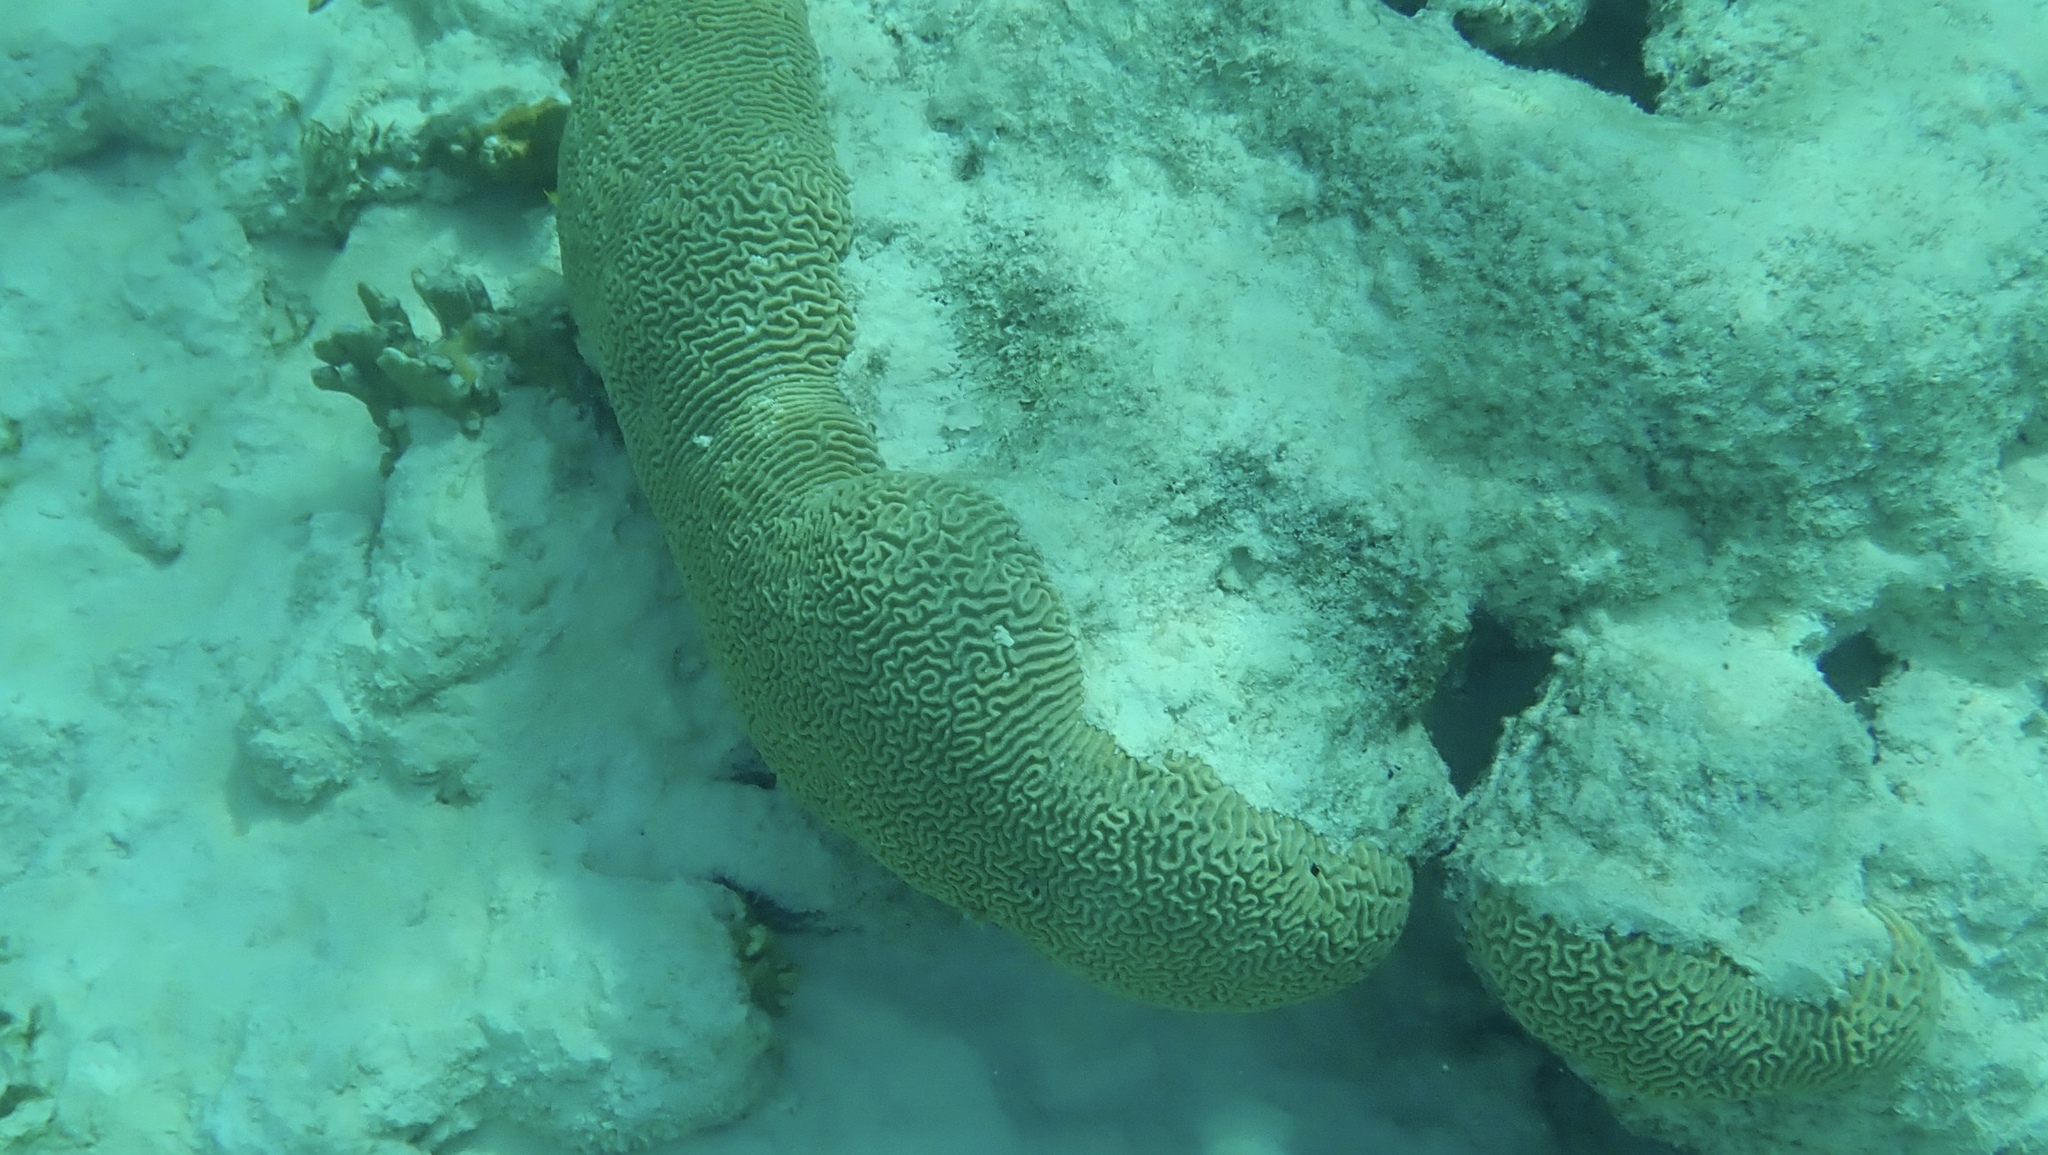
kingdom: Animalia
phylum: Cnidaria
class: Anthozoa
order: Scleractinia
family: Faviidae
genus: Pseudodiploria
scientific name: Pseudodiploria strigosa
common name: Symmetrical brain coral
